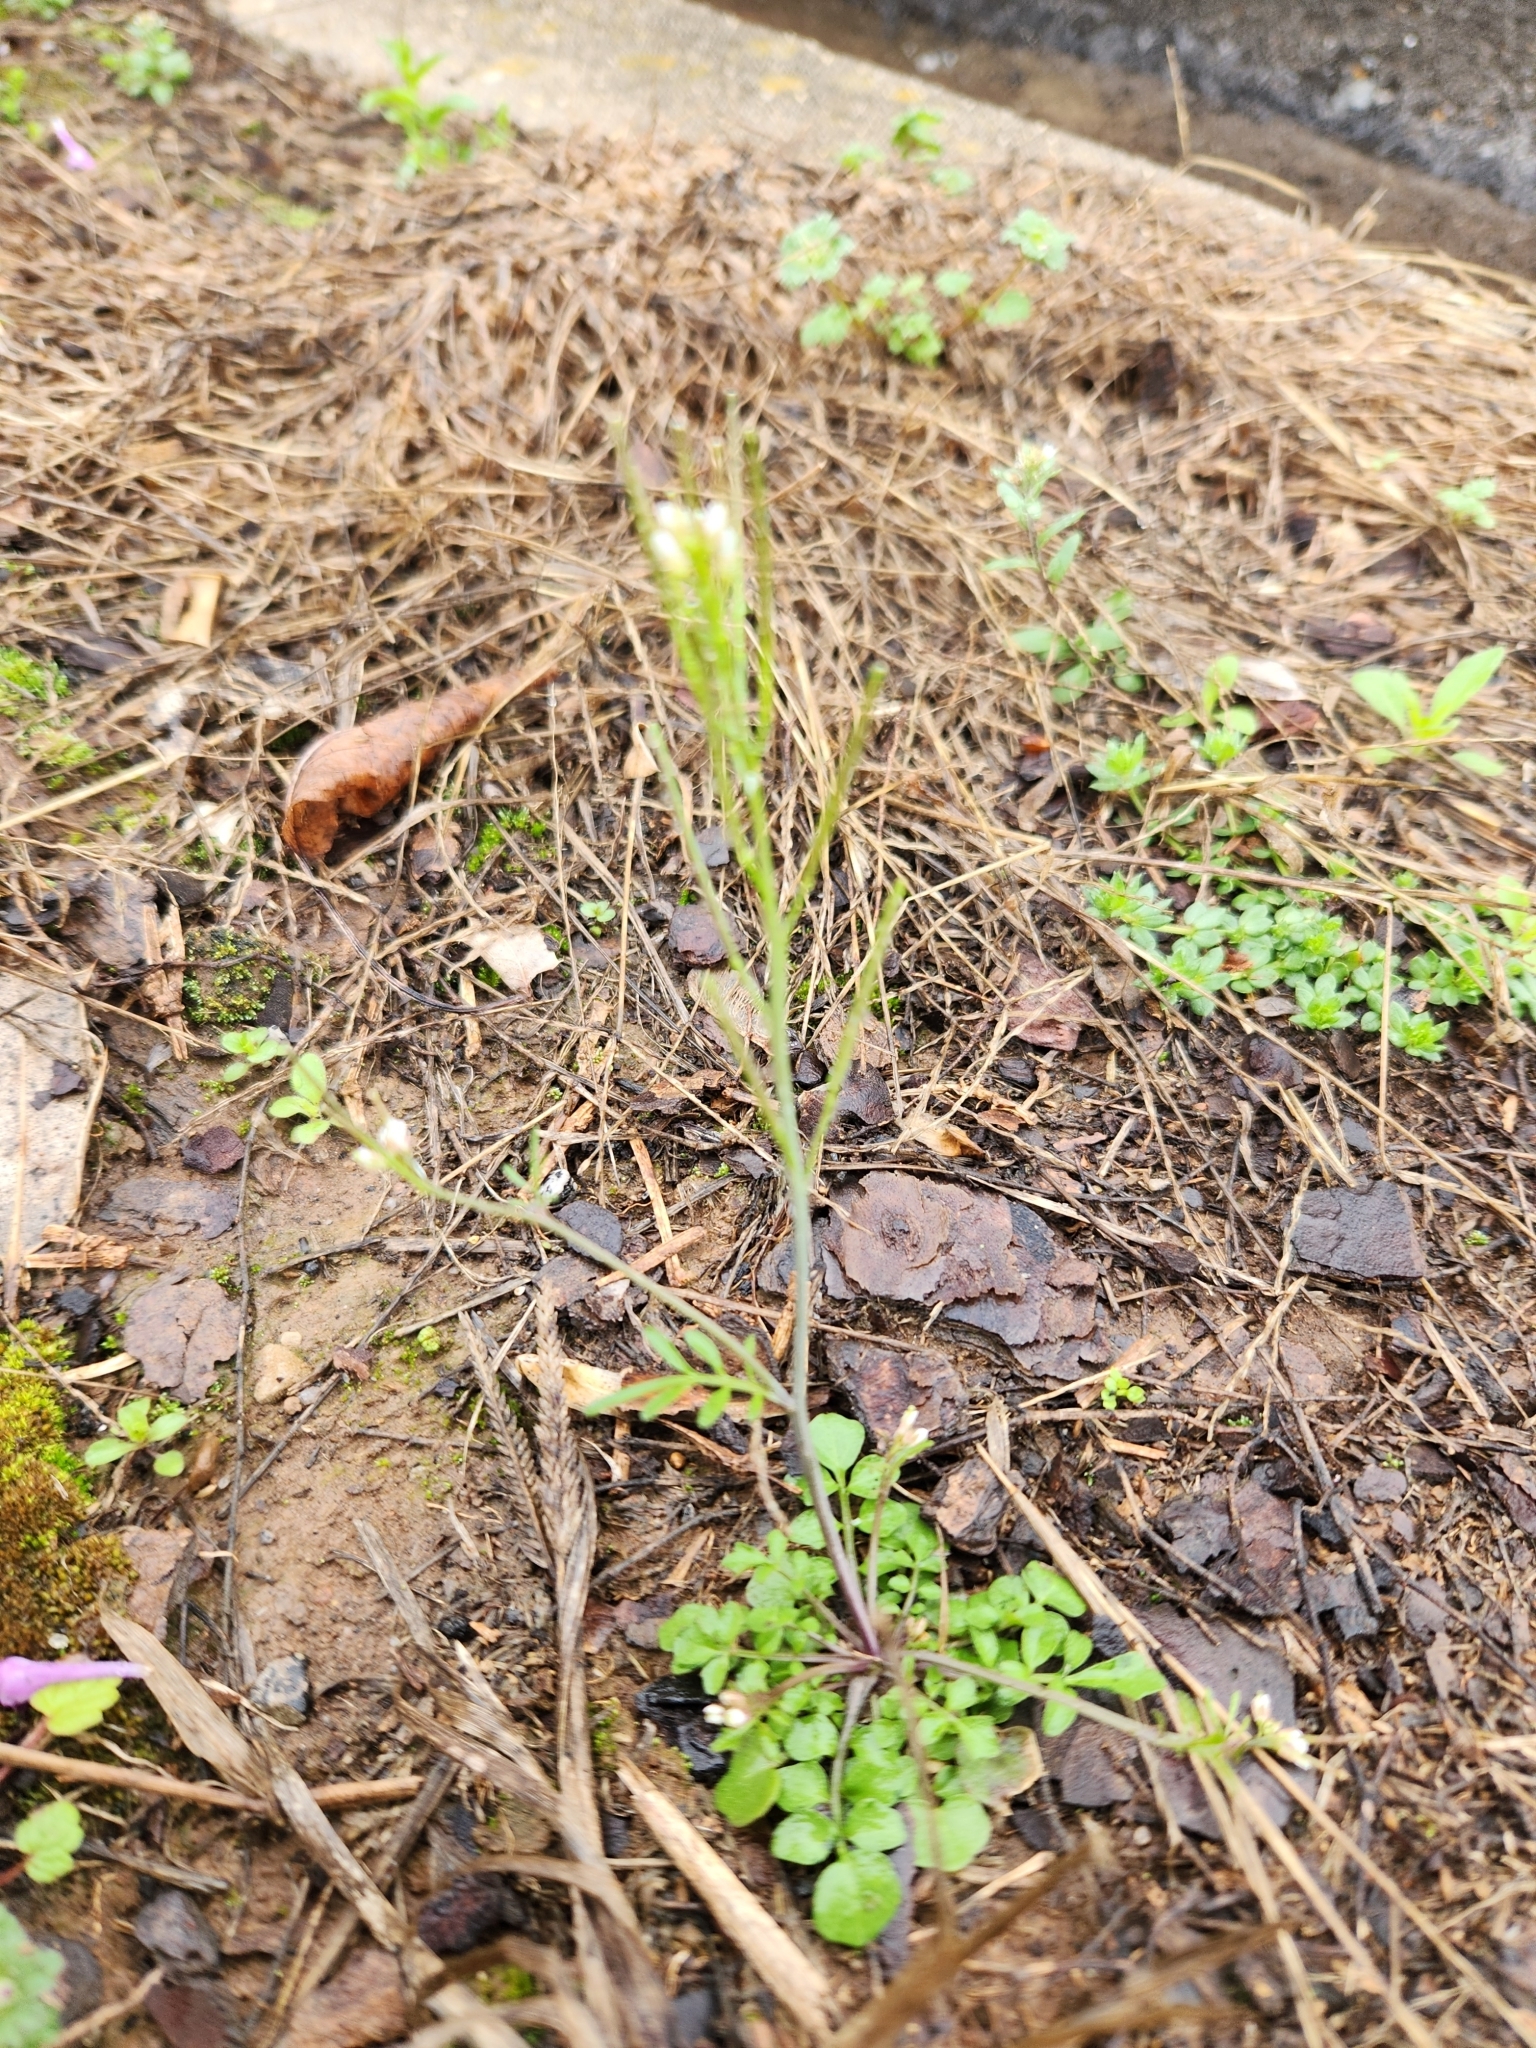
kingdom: Plantae
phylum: Tracheophyta
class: Magnoliopsida
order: Brassicales
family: Brassicaceae
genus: Cardamine
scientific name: Cardamine hirsuta
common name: Hairy bittercress
